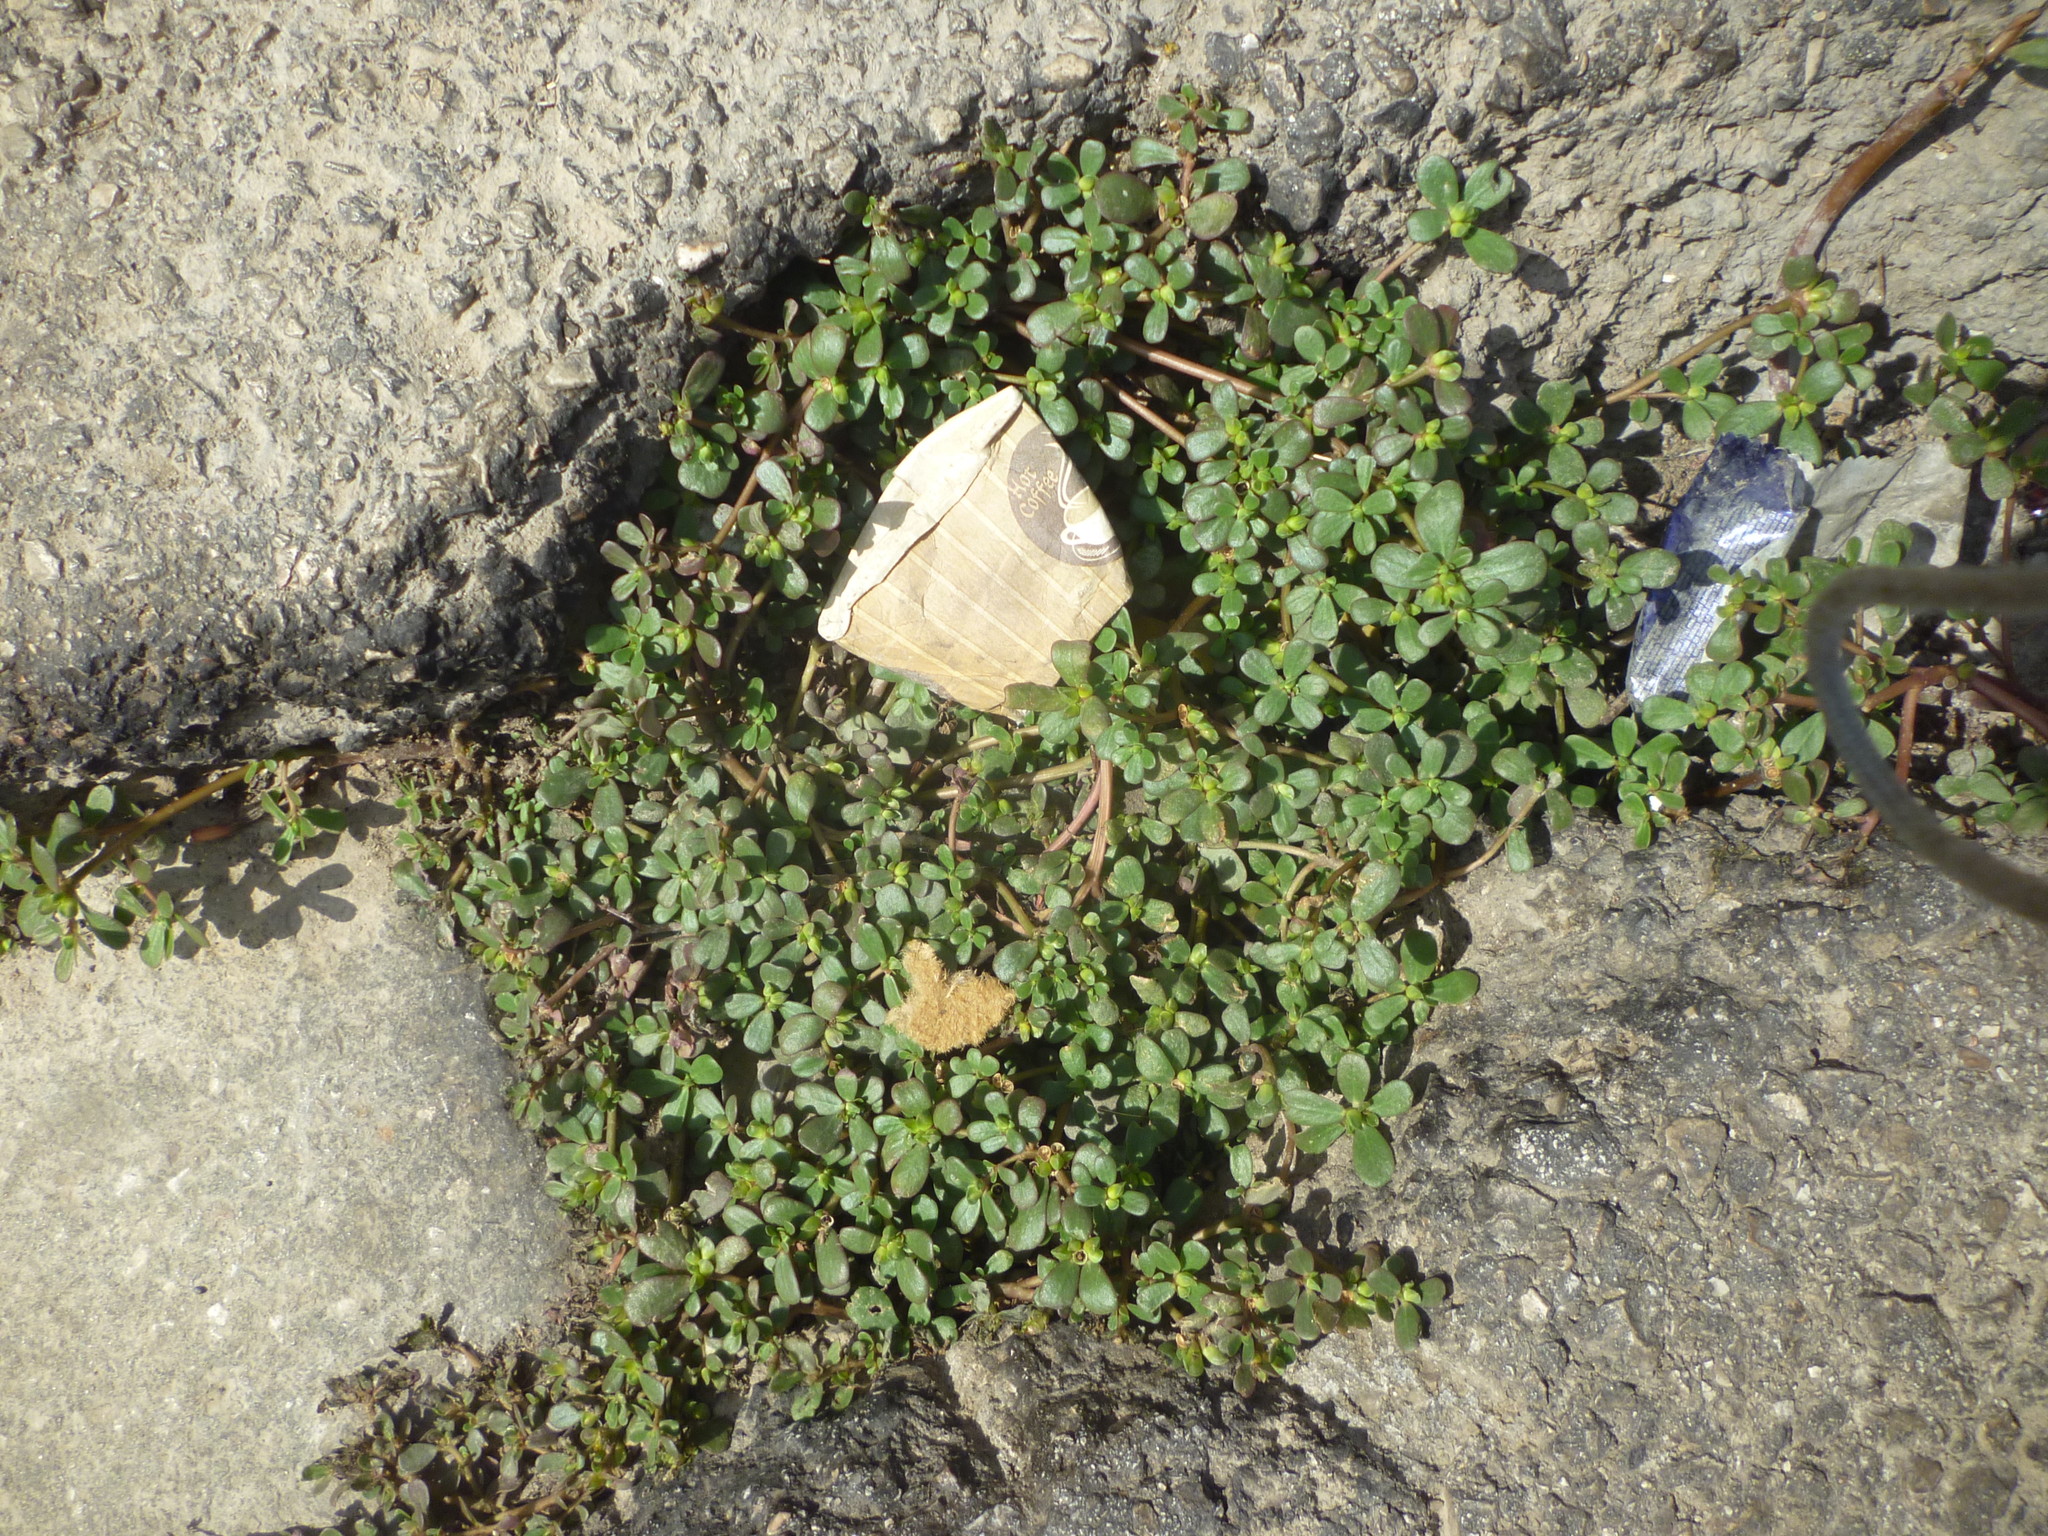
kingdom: Plantae
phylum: Tracheophyta
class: Magnoliopsida
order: Caryophyllales
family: Portulacaceae
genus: Portulaca
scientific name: Portulaca oleracea
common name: Common purslane
